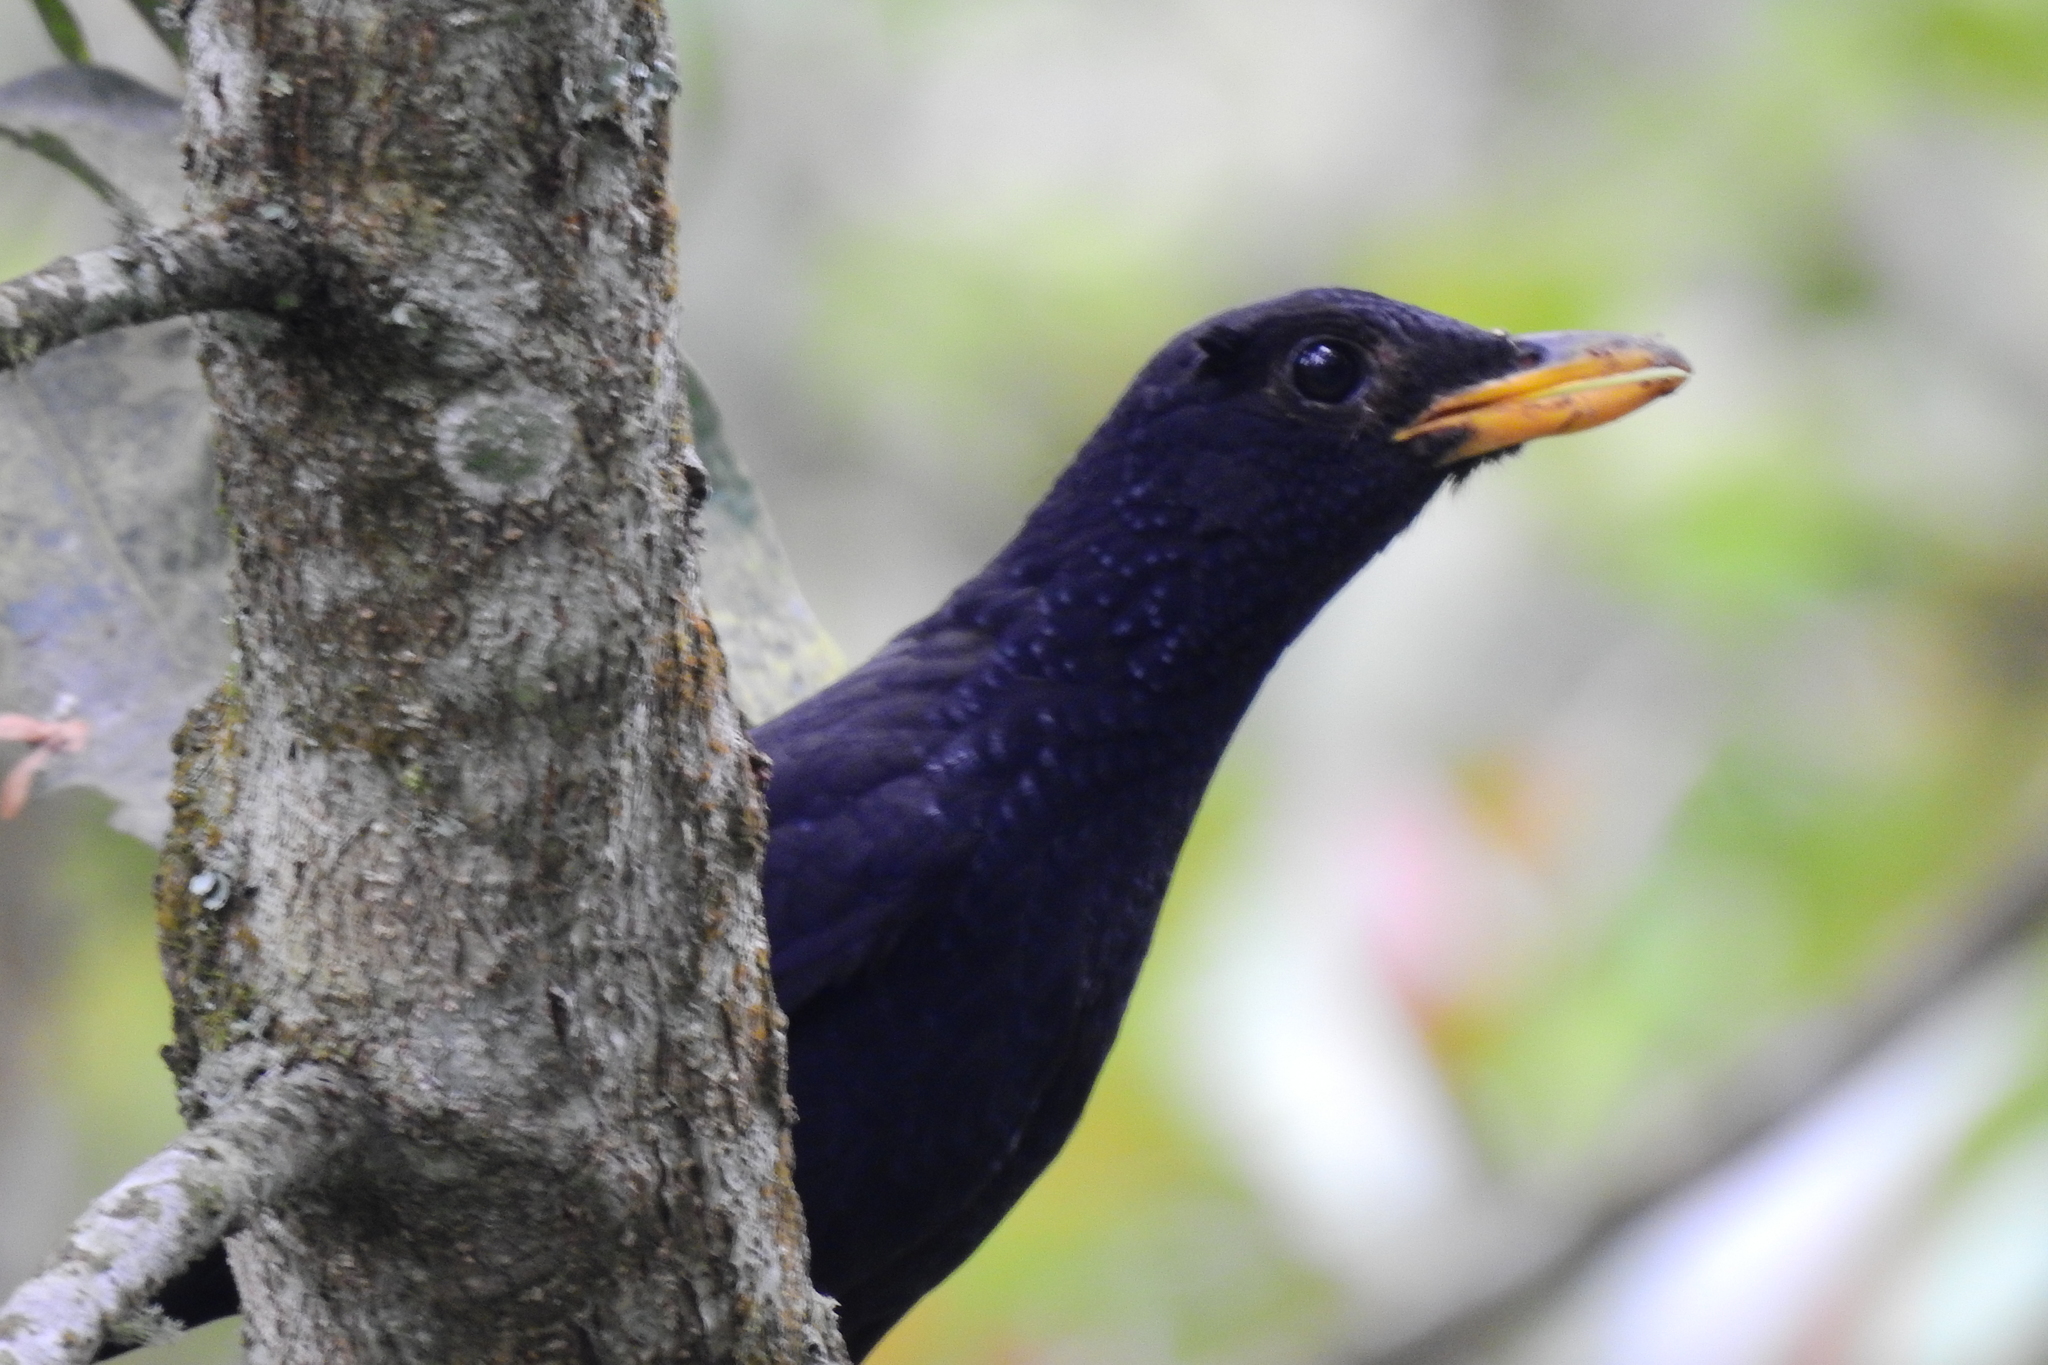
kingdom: Animalia
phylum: Chordata
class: Aves
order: Passeriformes
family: Muscicapidae
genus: Myophonus
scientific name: Myophonus caeruleus
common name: Blue whistling-thrush
